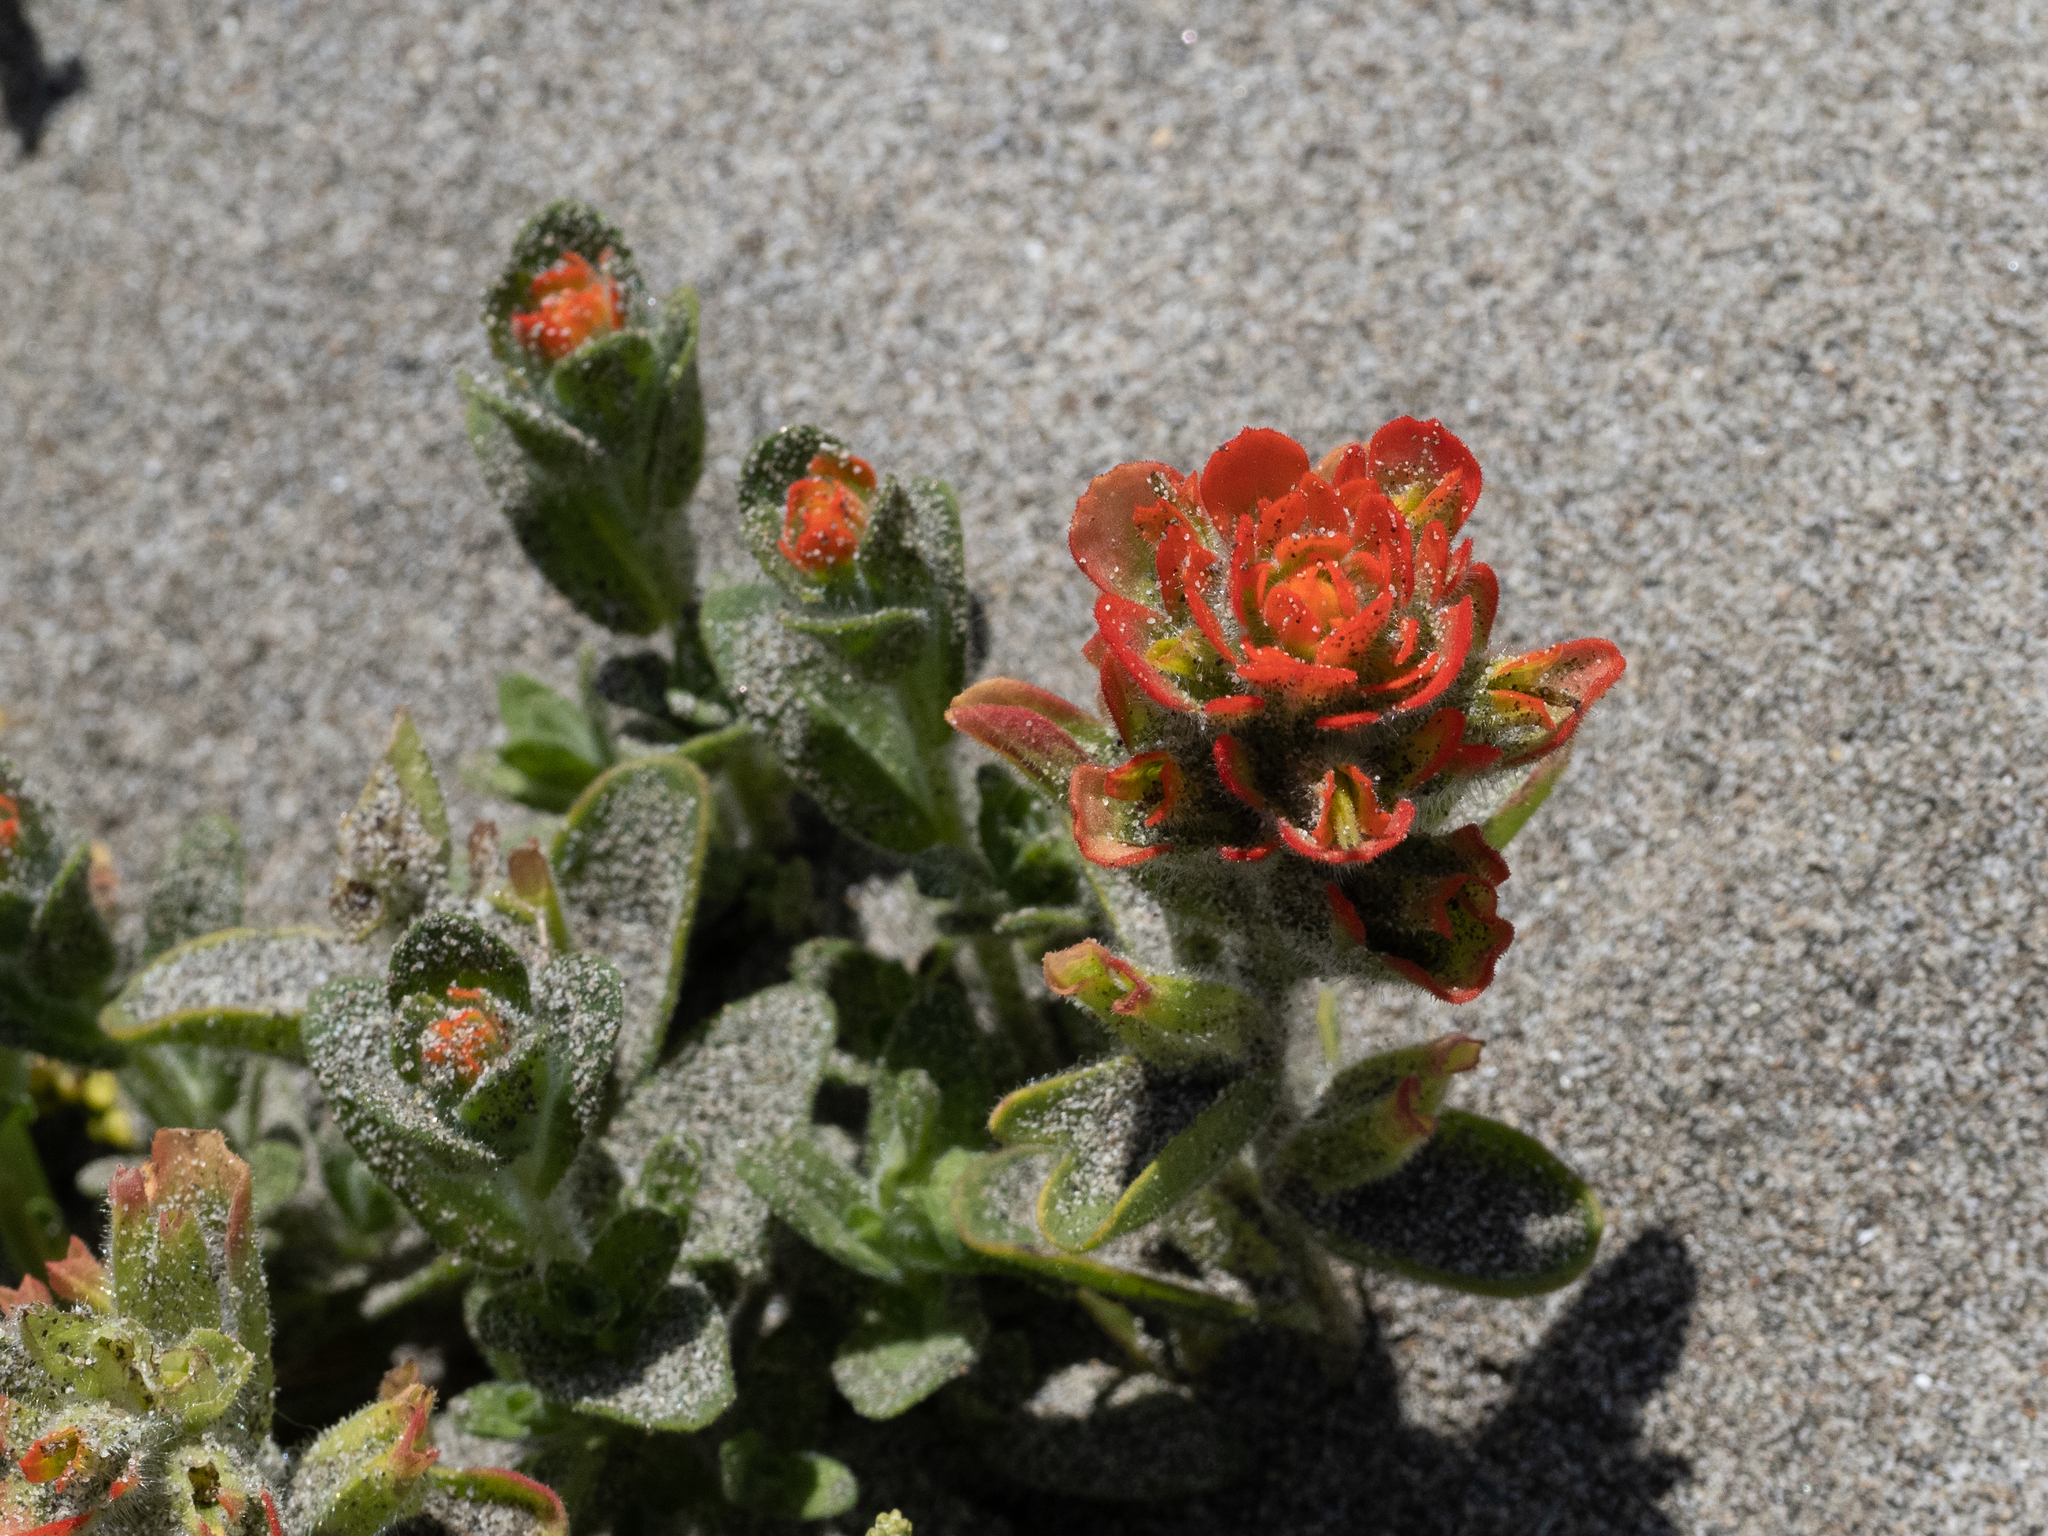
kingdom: Plantae
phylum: Tracheophyta
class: Magnoliopsida
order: Lamiales
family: Orobanchaceae
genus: Castilleja
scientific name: Castilleja latifolia
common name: Monterey indian paintbrush
